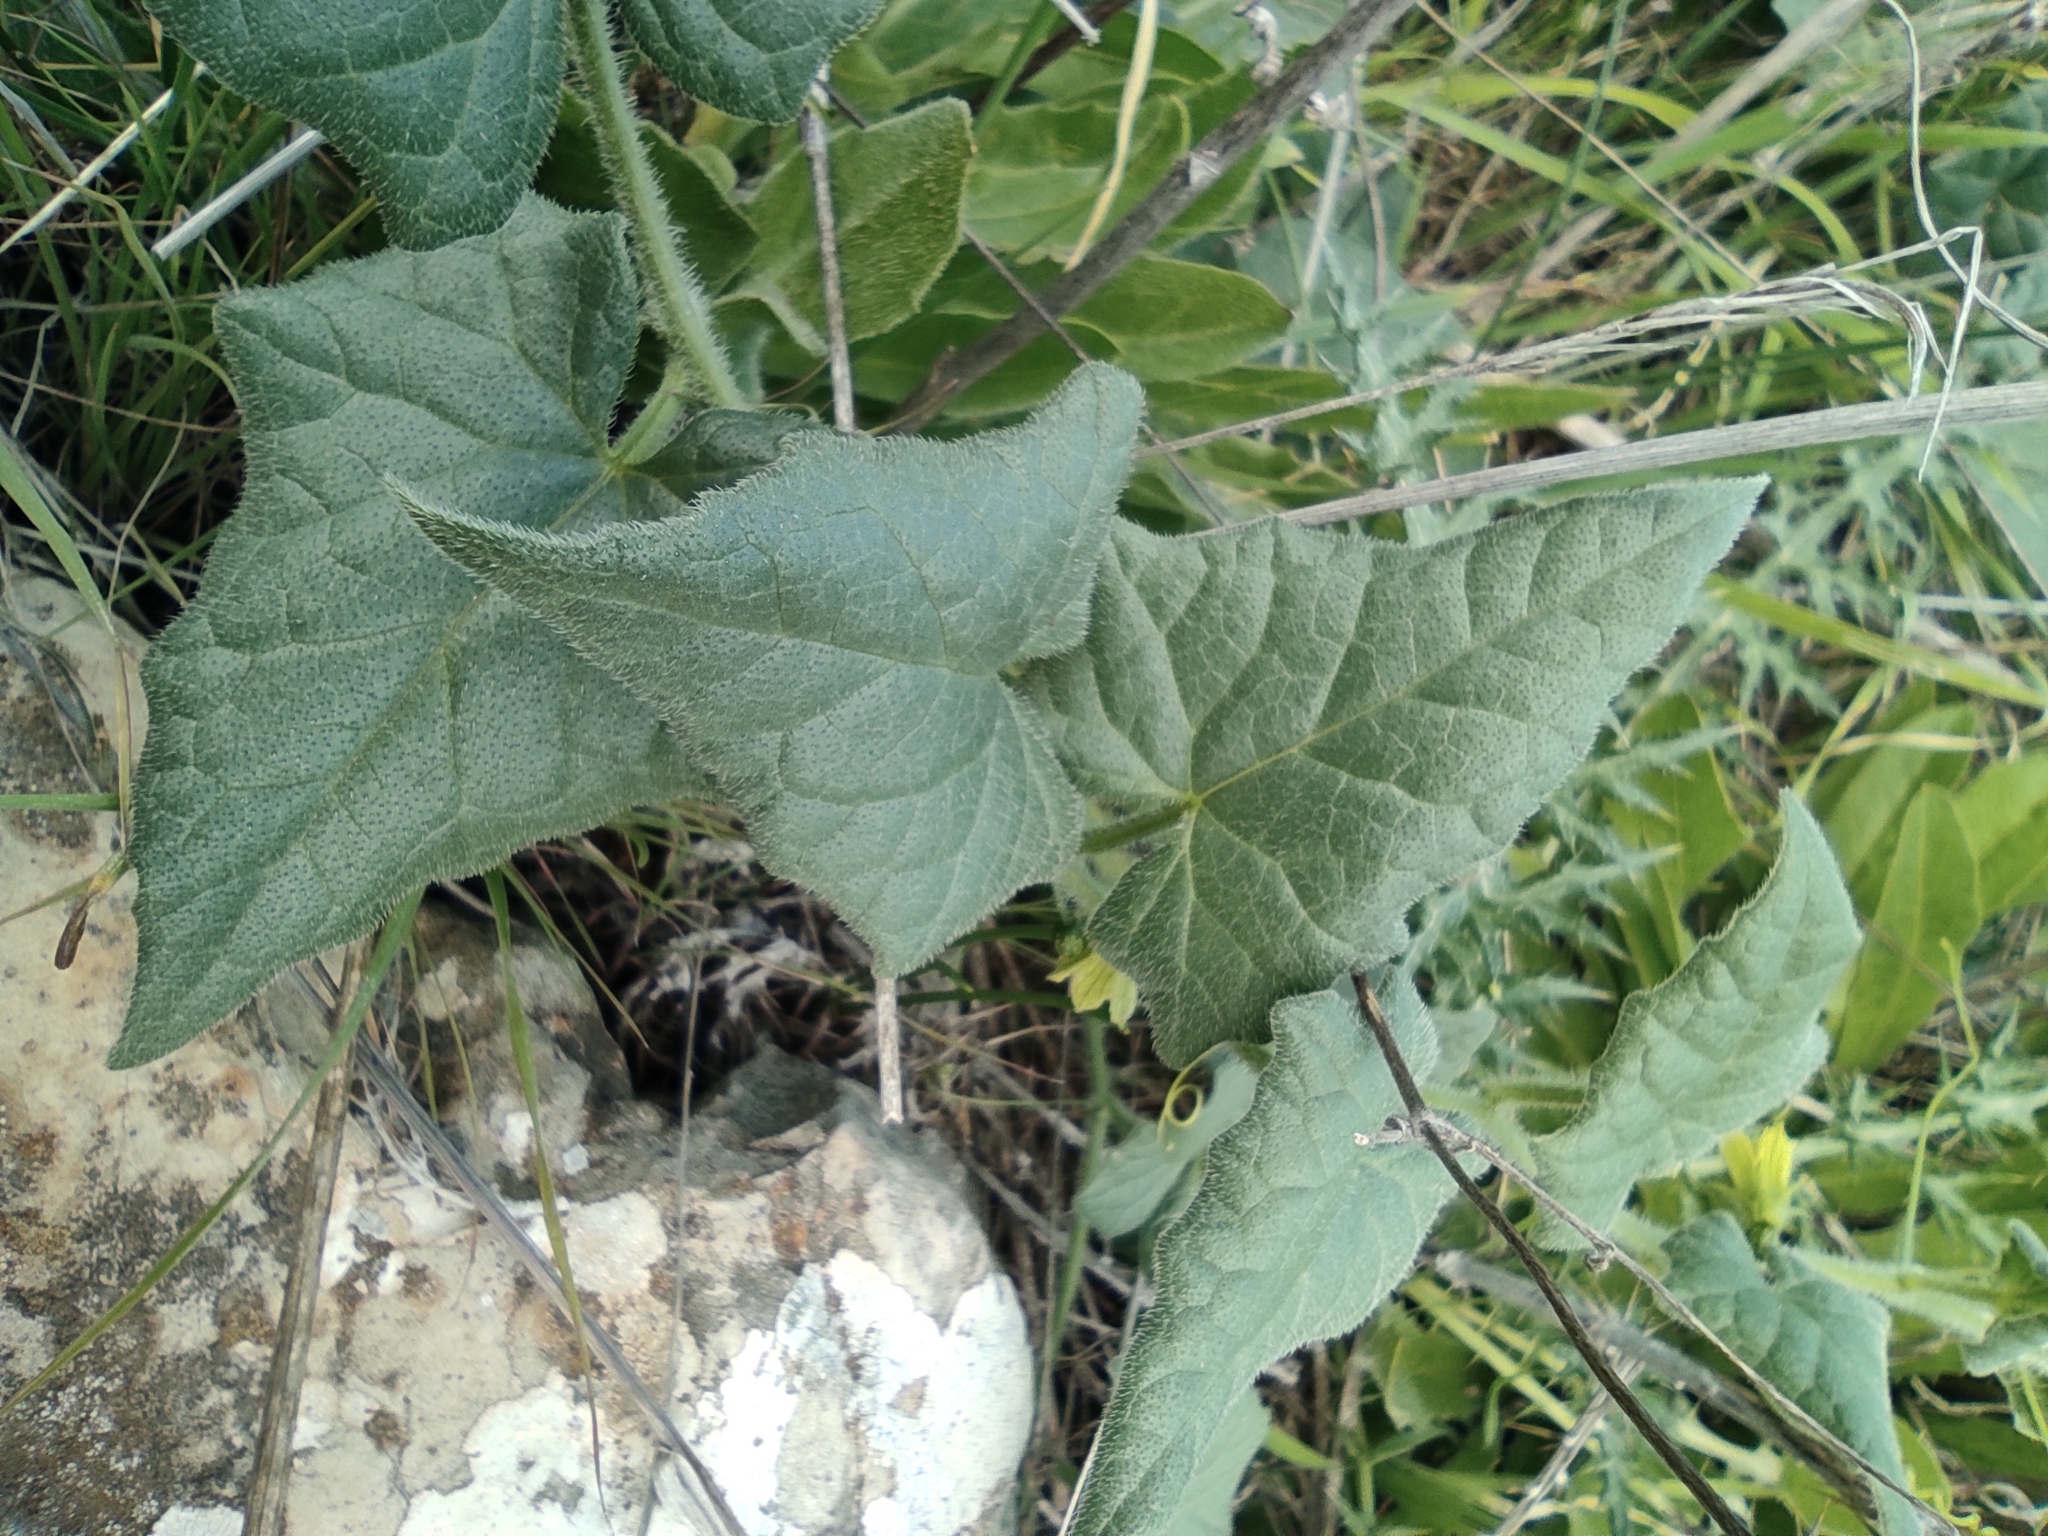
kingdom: Plantae
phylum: Tracheophyta
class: Magnoliopsida
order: Cucurbitales
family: Cucurbitaceae
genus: Bryonia
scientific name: Bryonia syriaca
